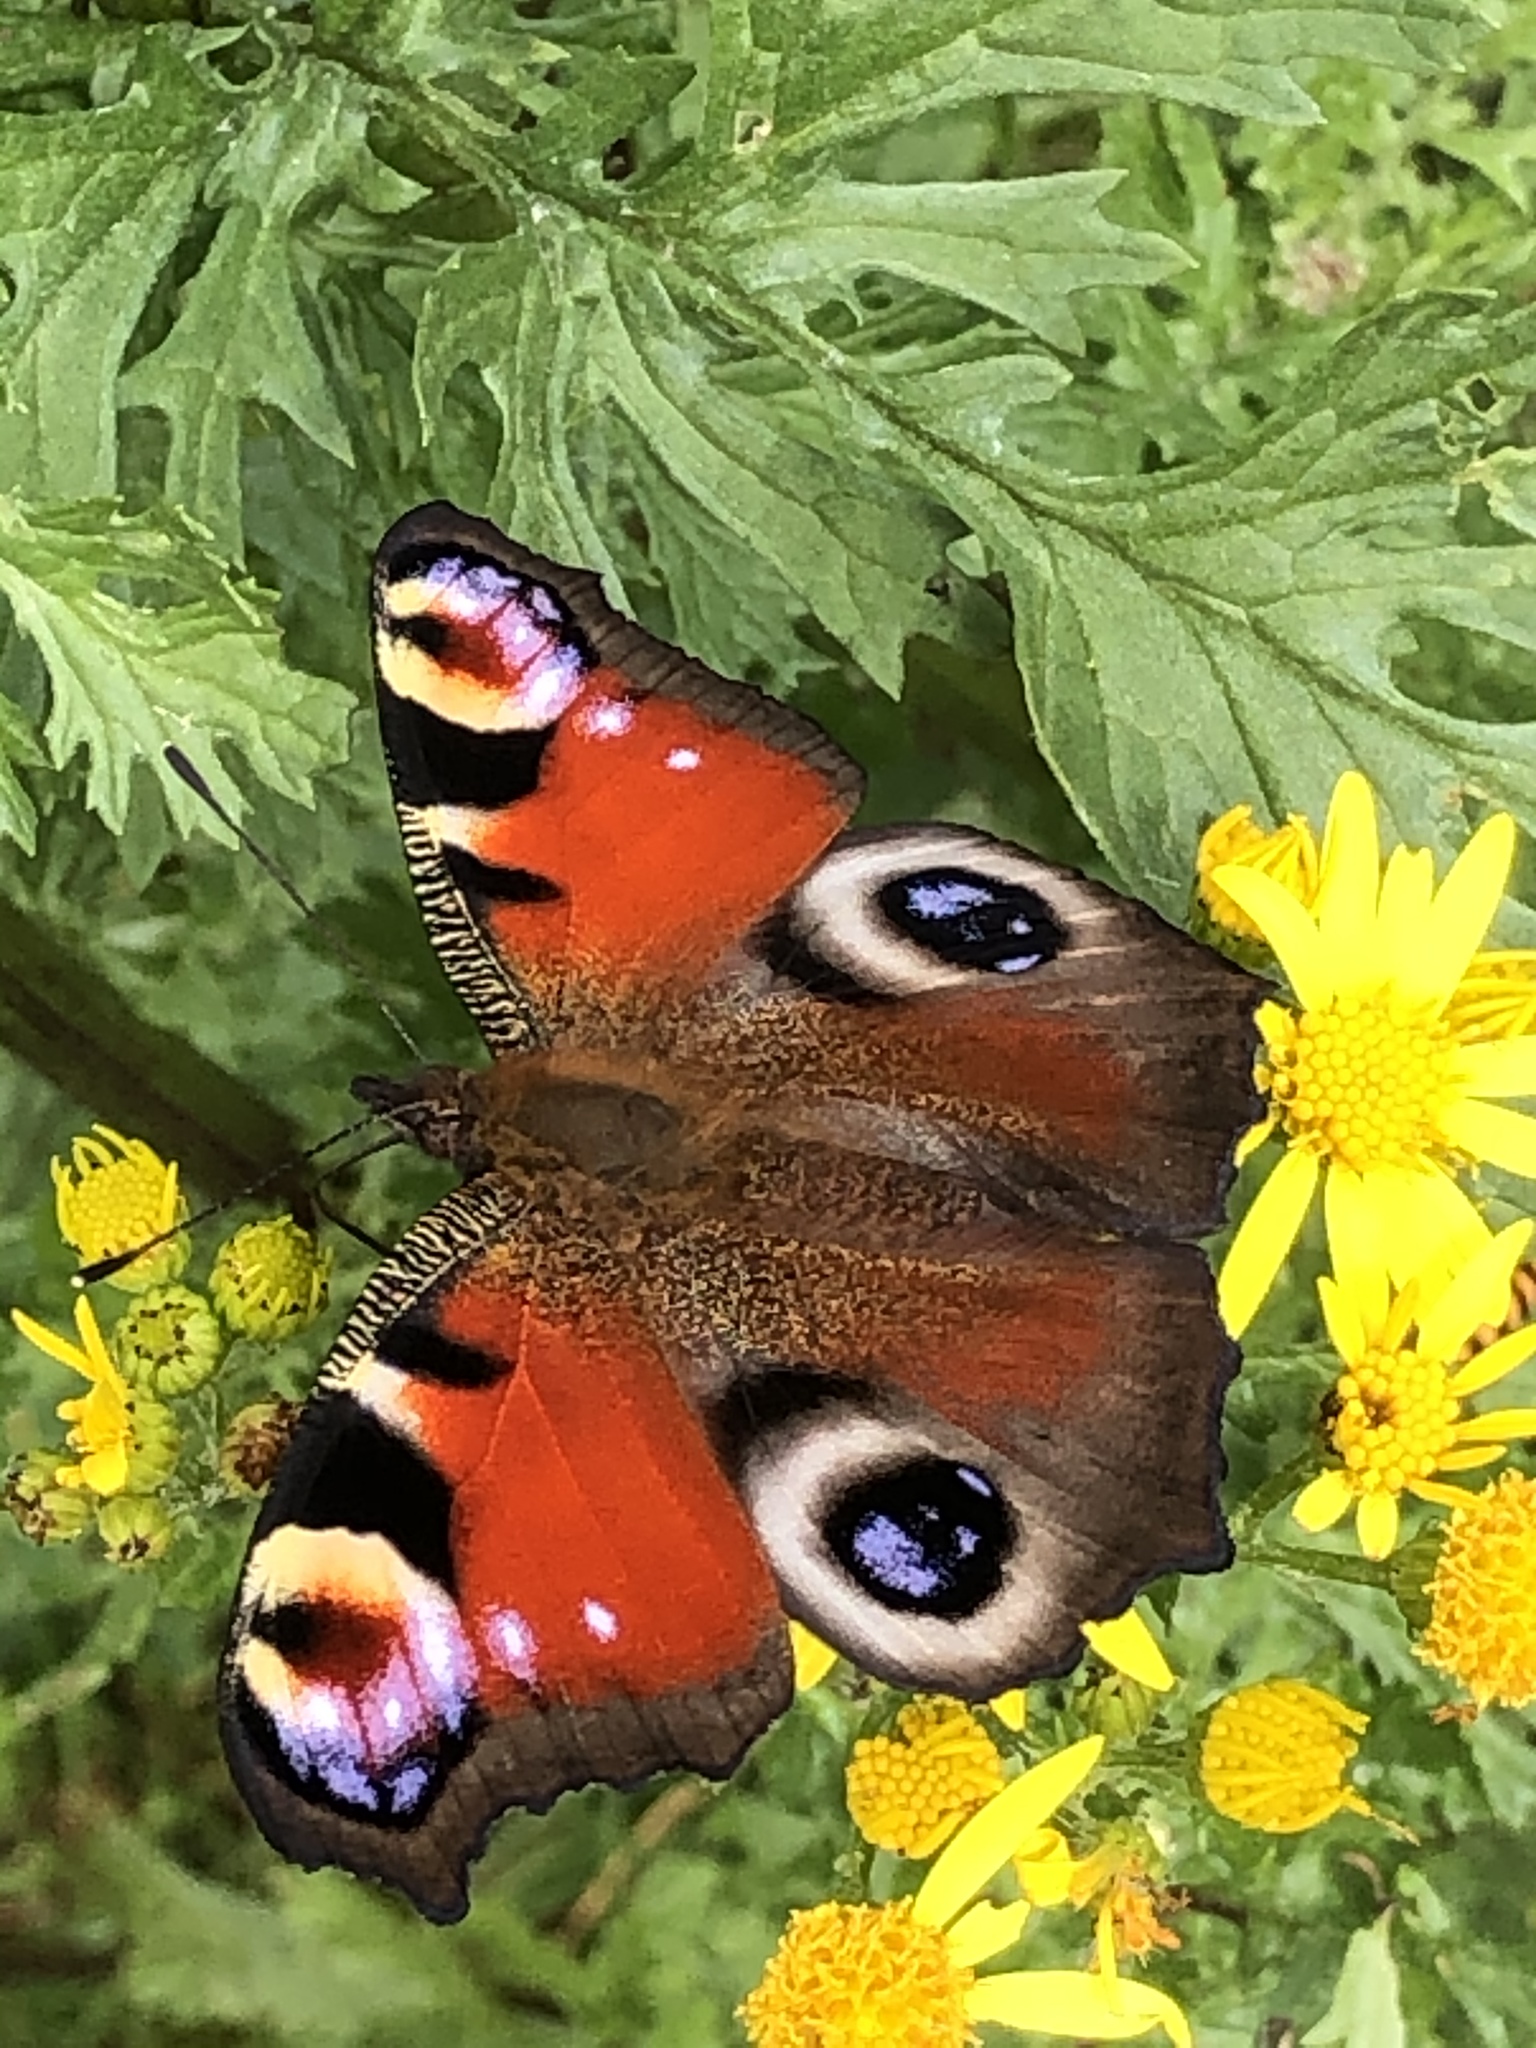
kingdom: Animalia
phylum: Arthropoda
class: Insecta
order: Lepidoptera
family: Nymphalidae
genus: Aglais
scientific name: Aglais io
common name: Peacock
